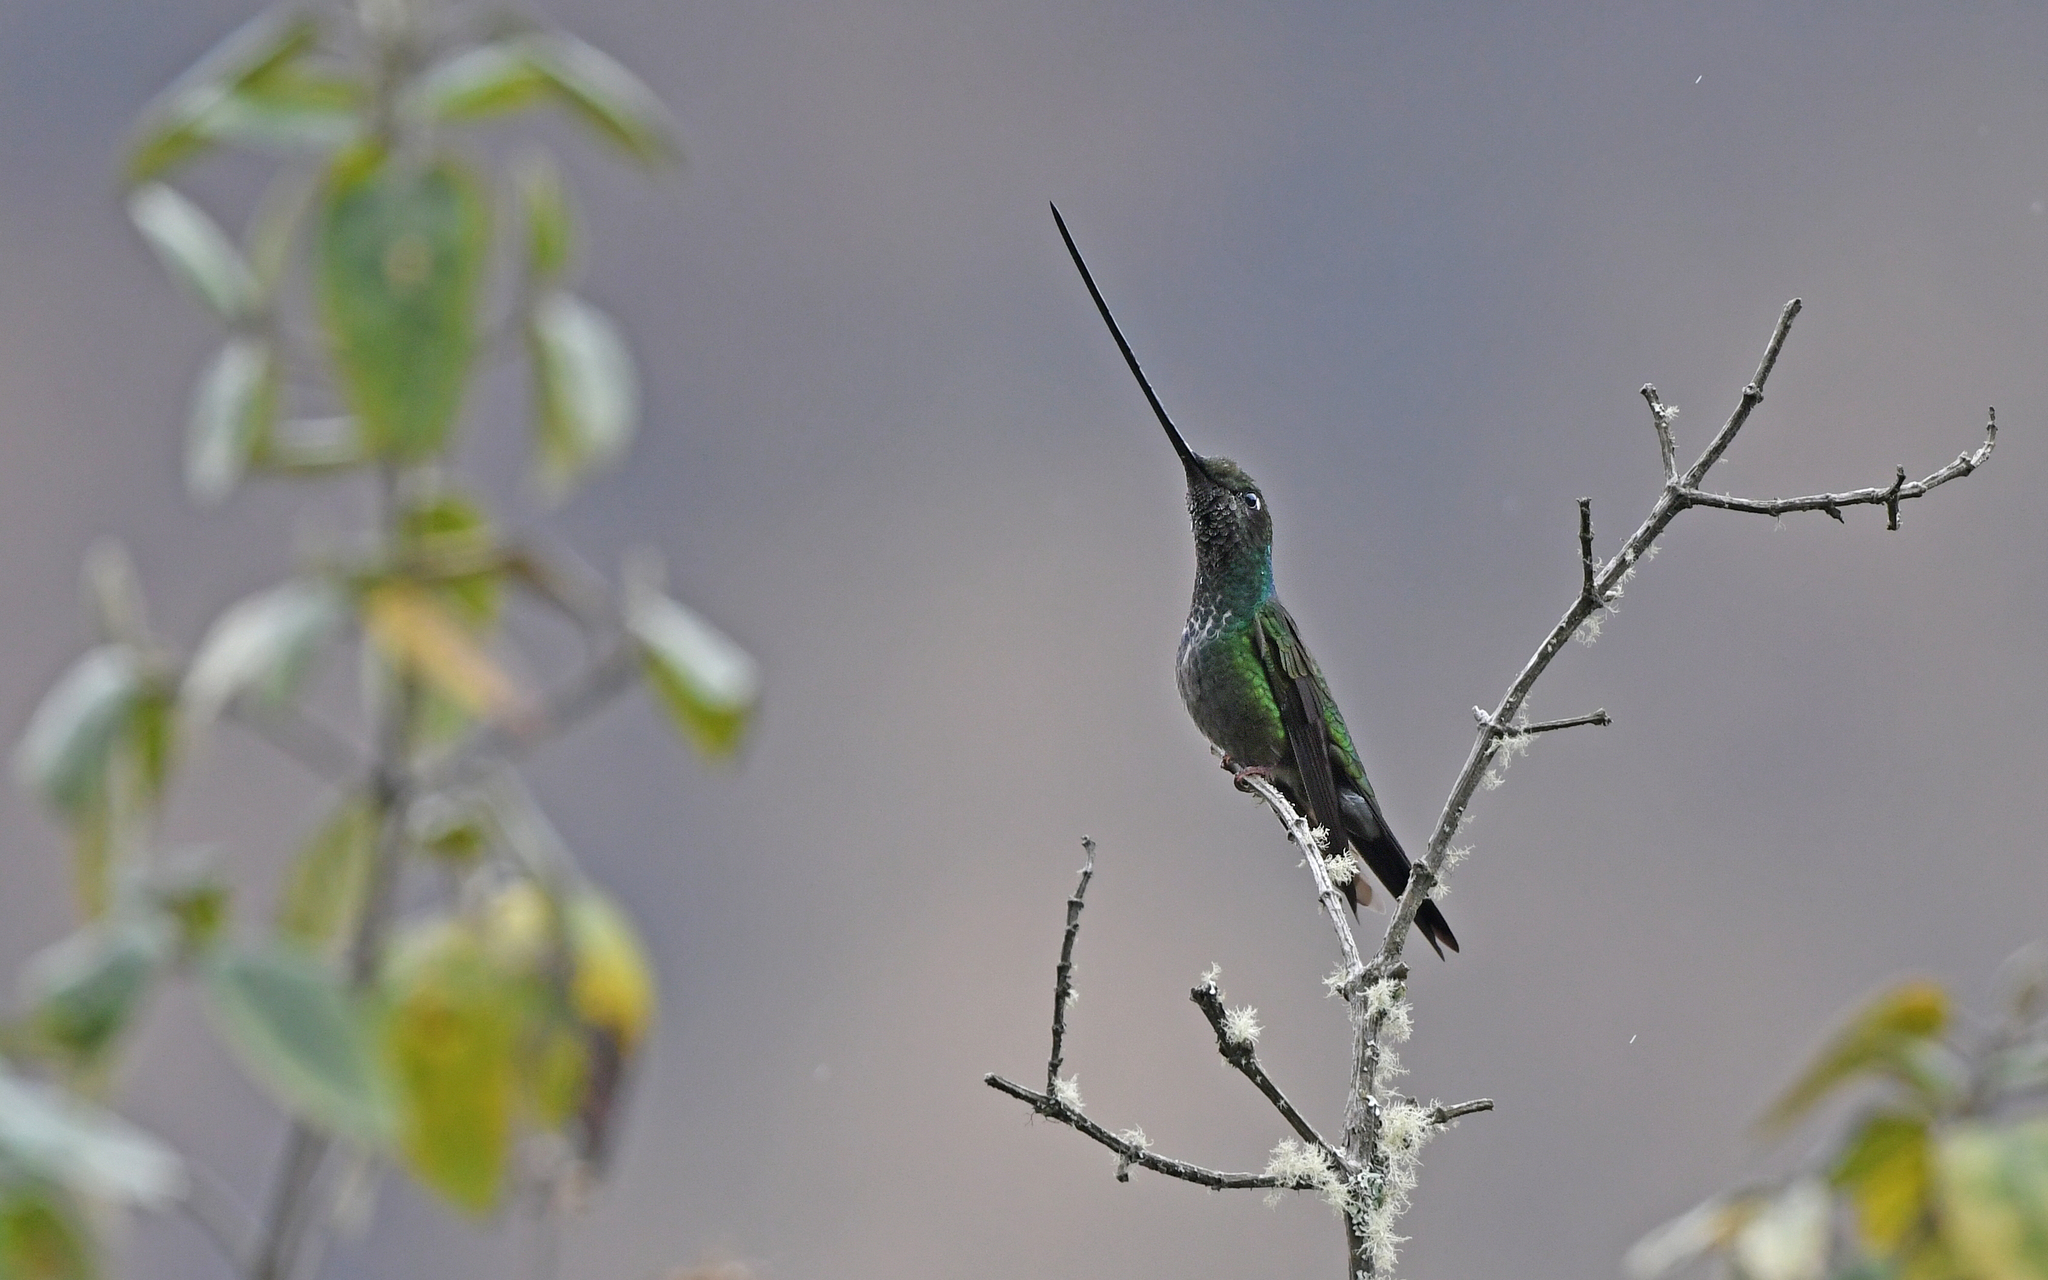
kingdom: Animalia
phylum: Chordata
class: Aves
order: Apodiformes
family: Trochilidae
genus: Ensifera
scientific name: Ensifera ensifera
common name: Sword-billed hummingbird
